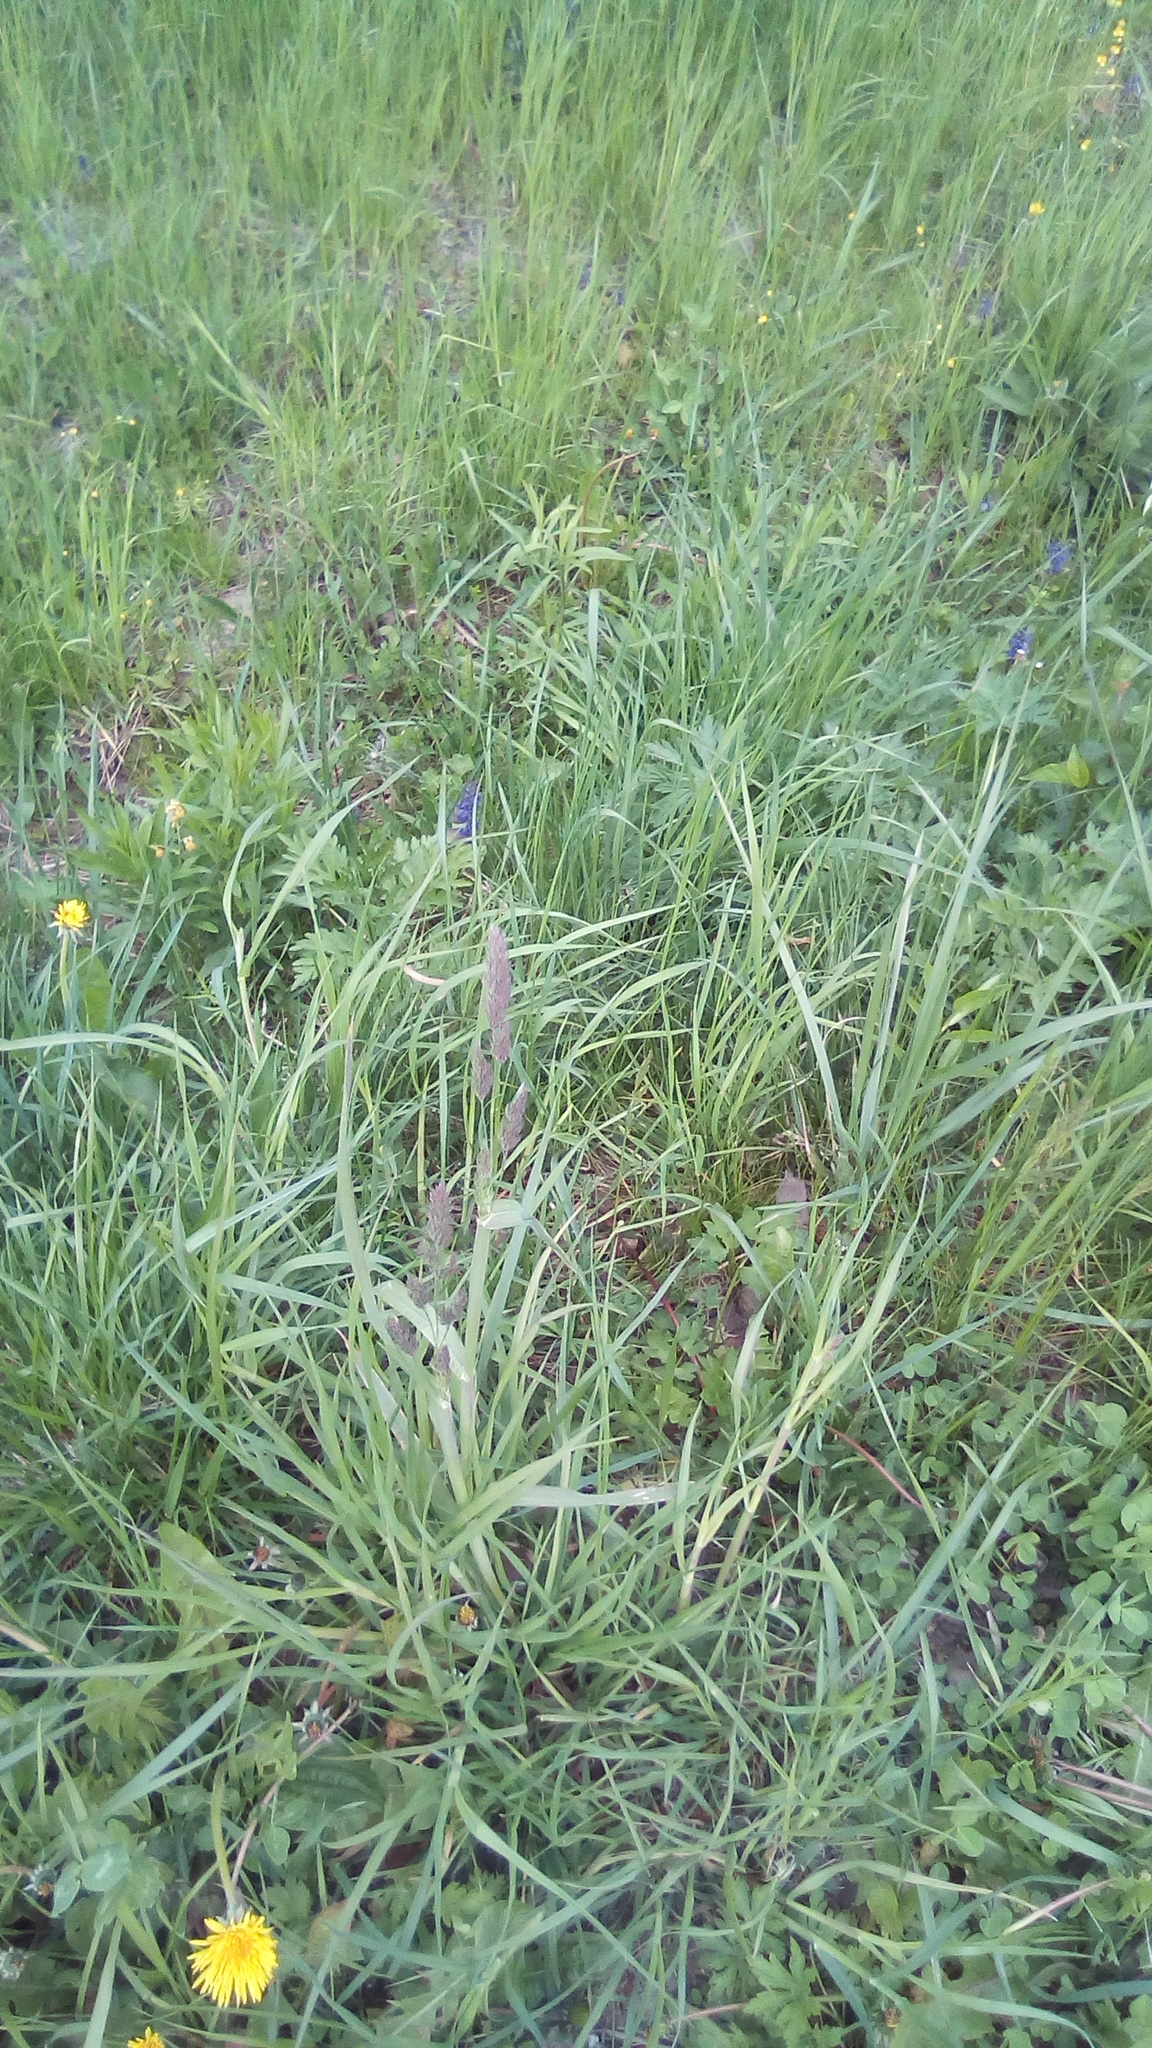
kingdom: Plantae
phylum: Tracheophyta
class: Liliopsida
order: Poales
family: Poaceae
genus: Dactylis
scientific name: Dactylis glomerata
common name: Orchardgrass
